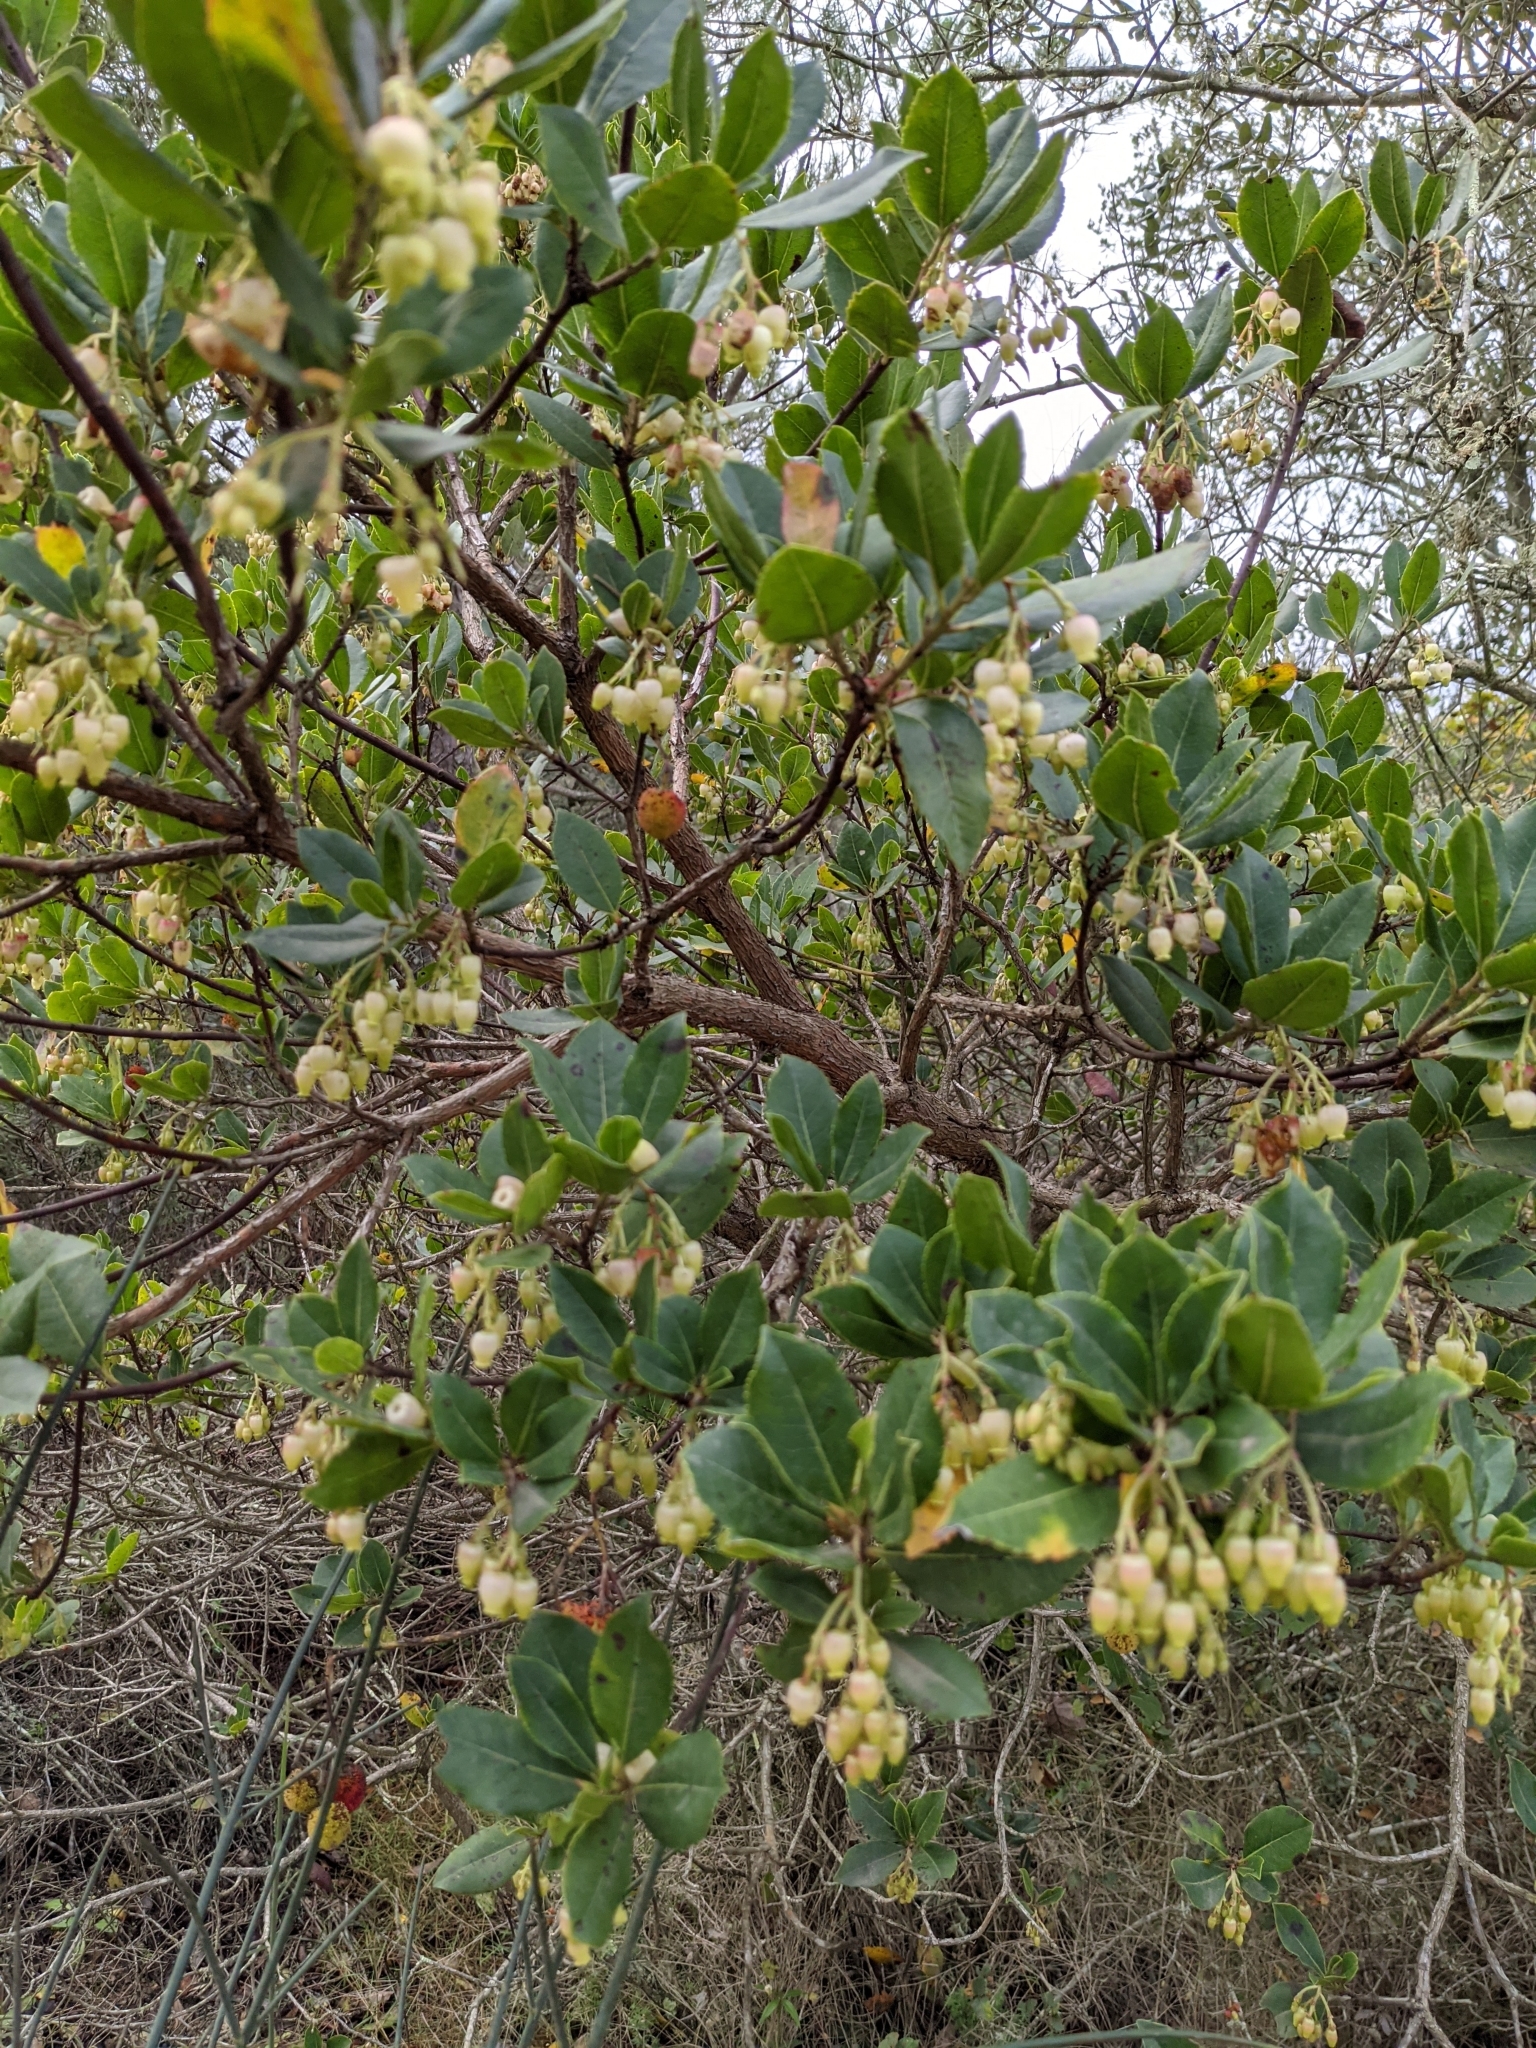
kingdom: Plantae
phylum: Tracheophyta
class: Magnoliopsida
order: Ericales
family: Ericaceae
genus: Arbutus
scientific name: Arbutus unedo
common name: Strawberry-tree
